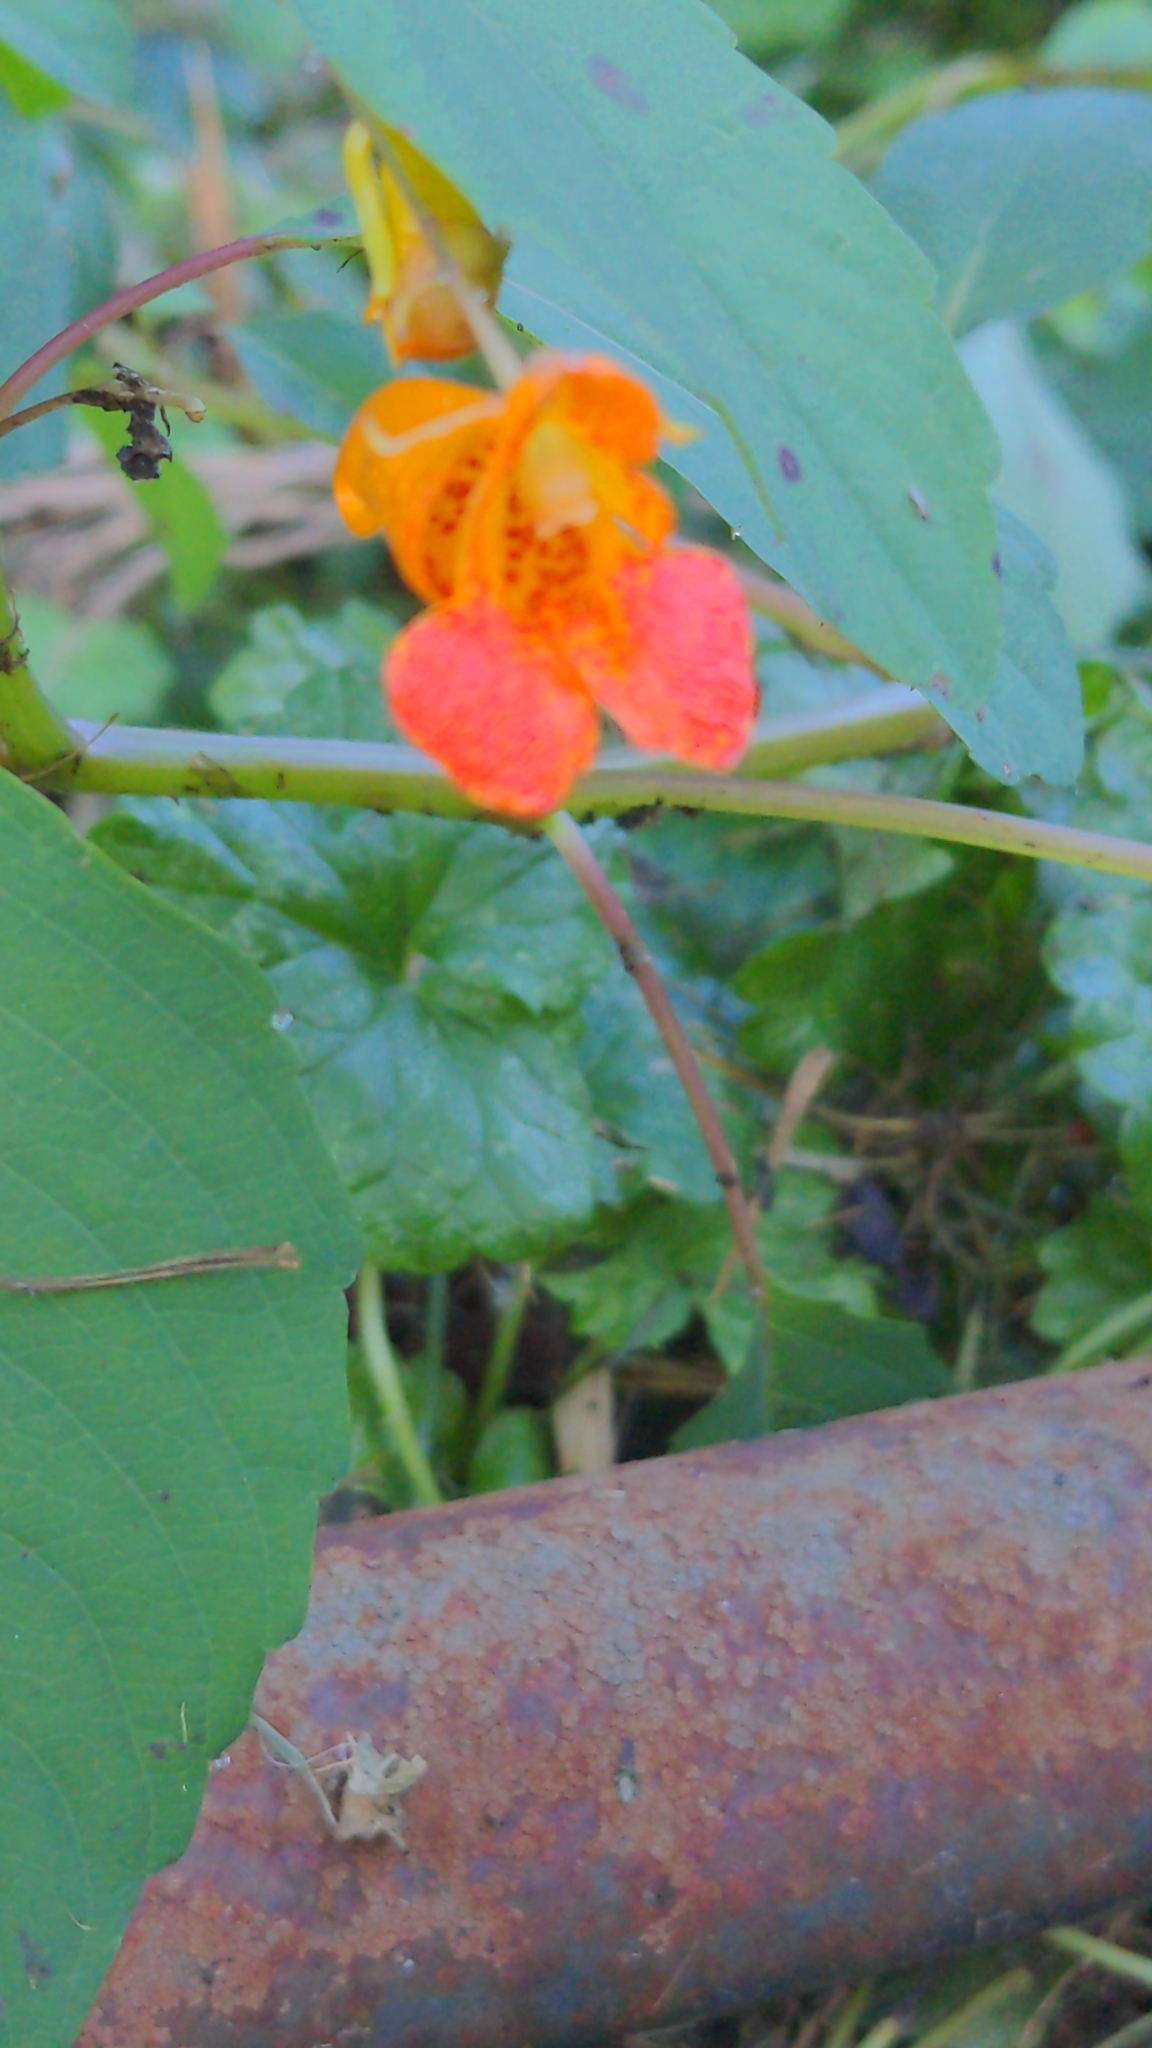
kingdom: Plantae
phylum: Tracheophyta
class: Magnoliopsida
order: Ericales
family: Balsaminaceae
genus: Impatiens
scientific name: Impatiens capensis
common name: Orange balsam
